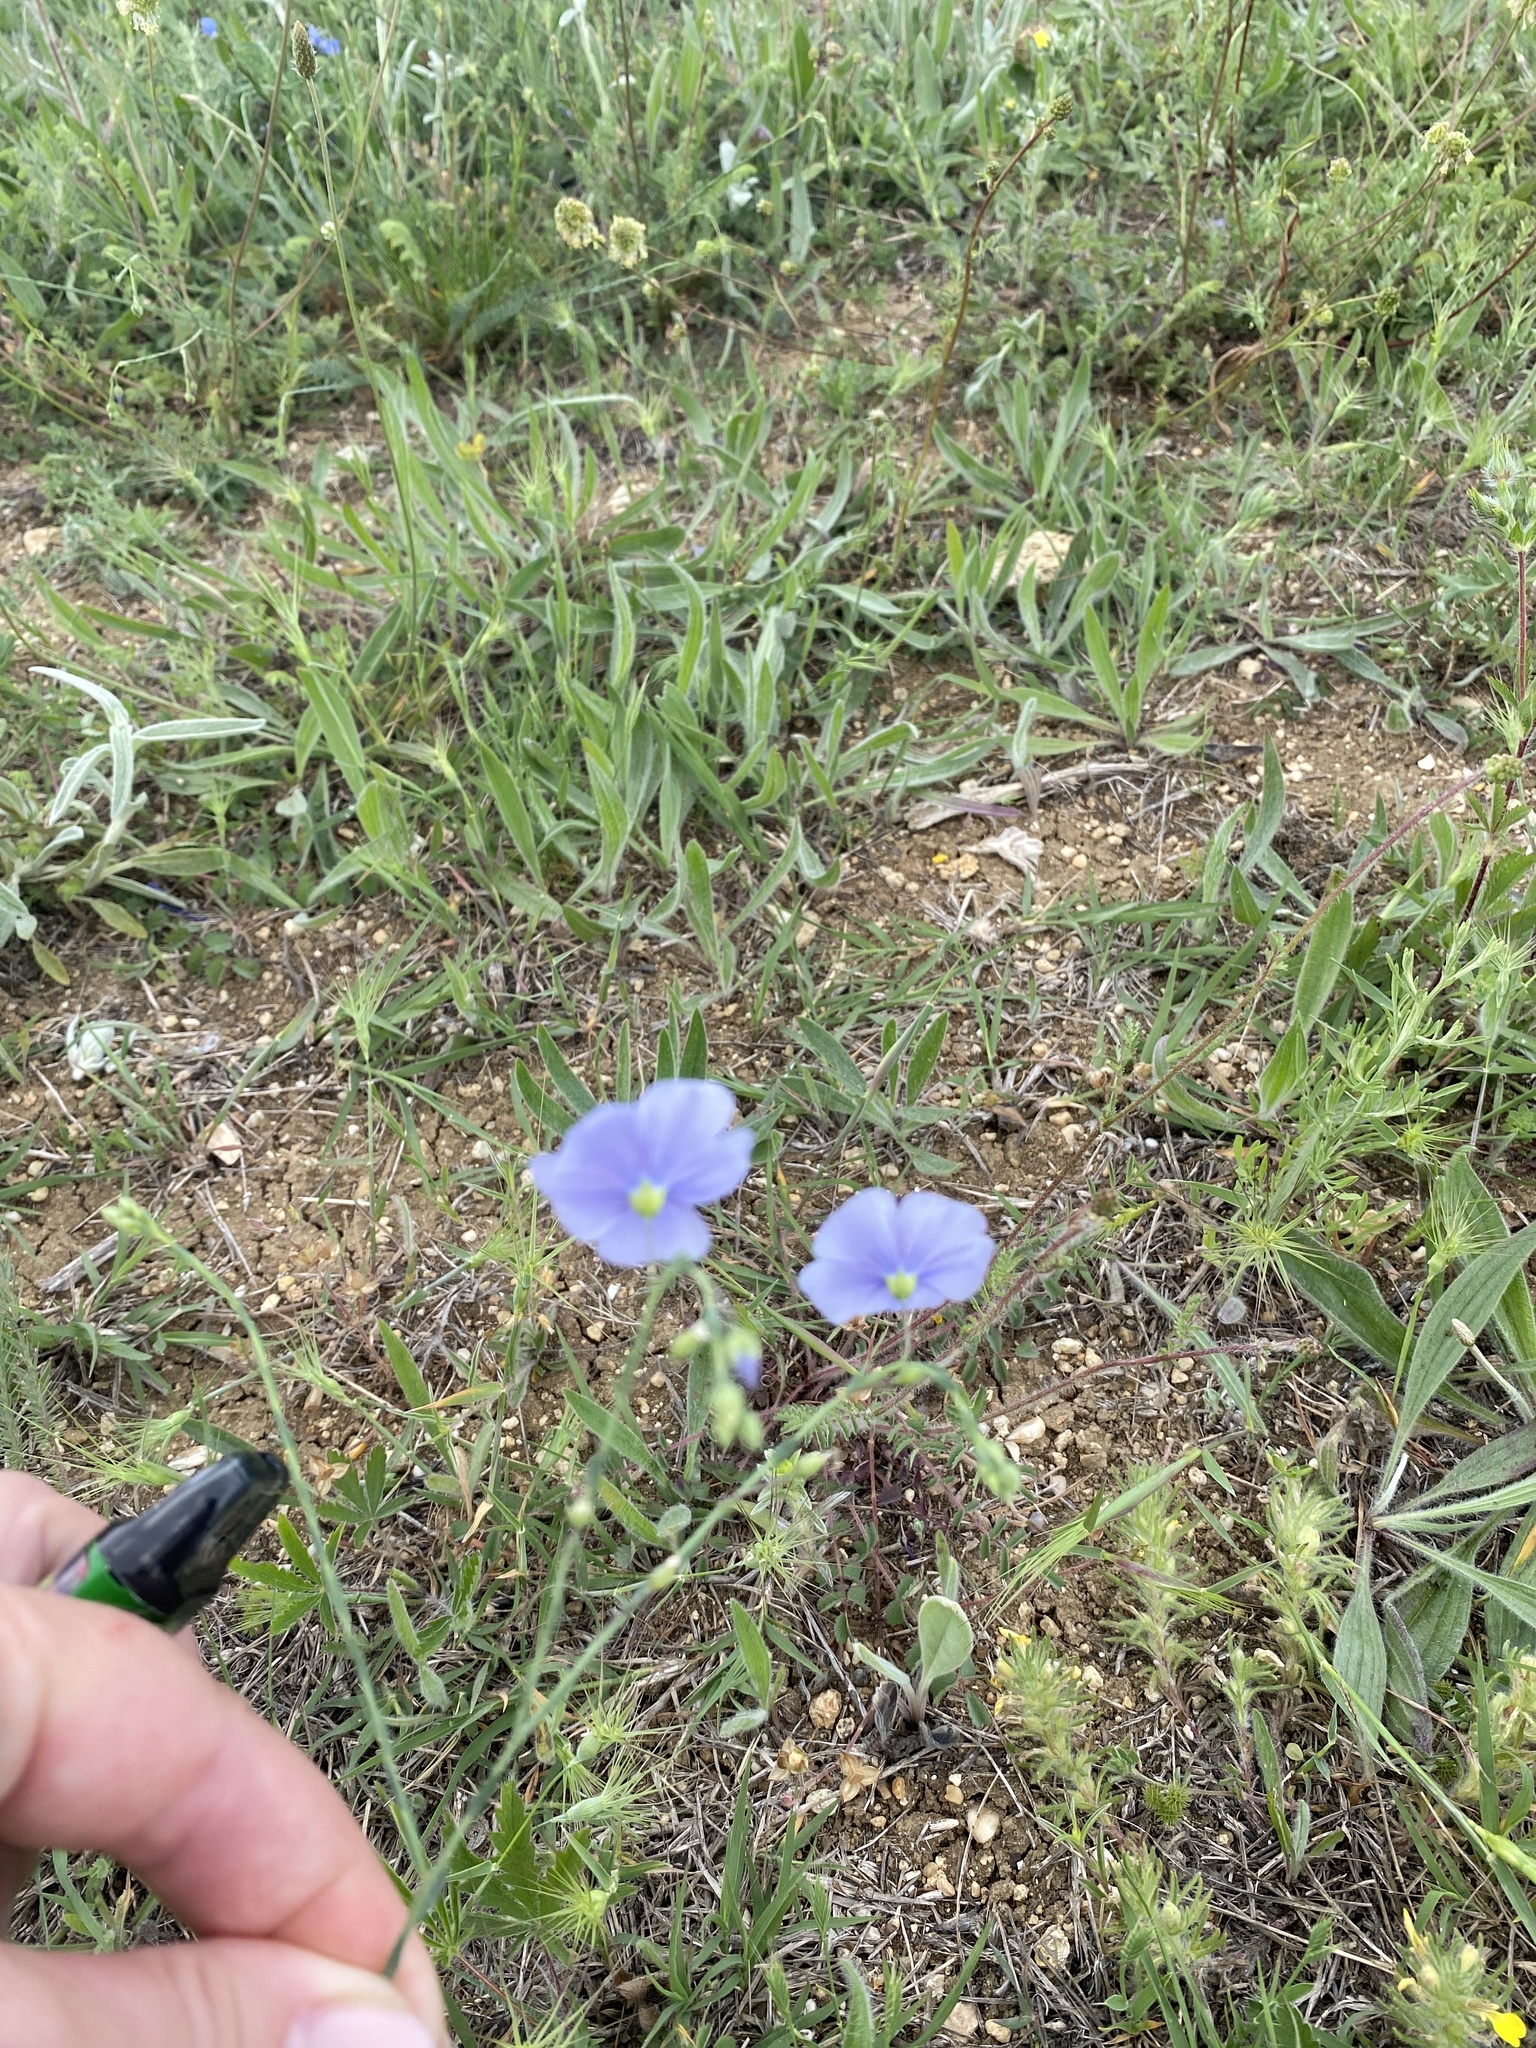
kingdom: Plantae
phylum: Tracheophyta
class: Magnoliopsida
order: Malpighiales
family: Linaceae
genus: Linum
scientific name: Linum austriacum
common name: Austrian flax
